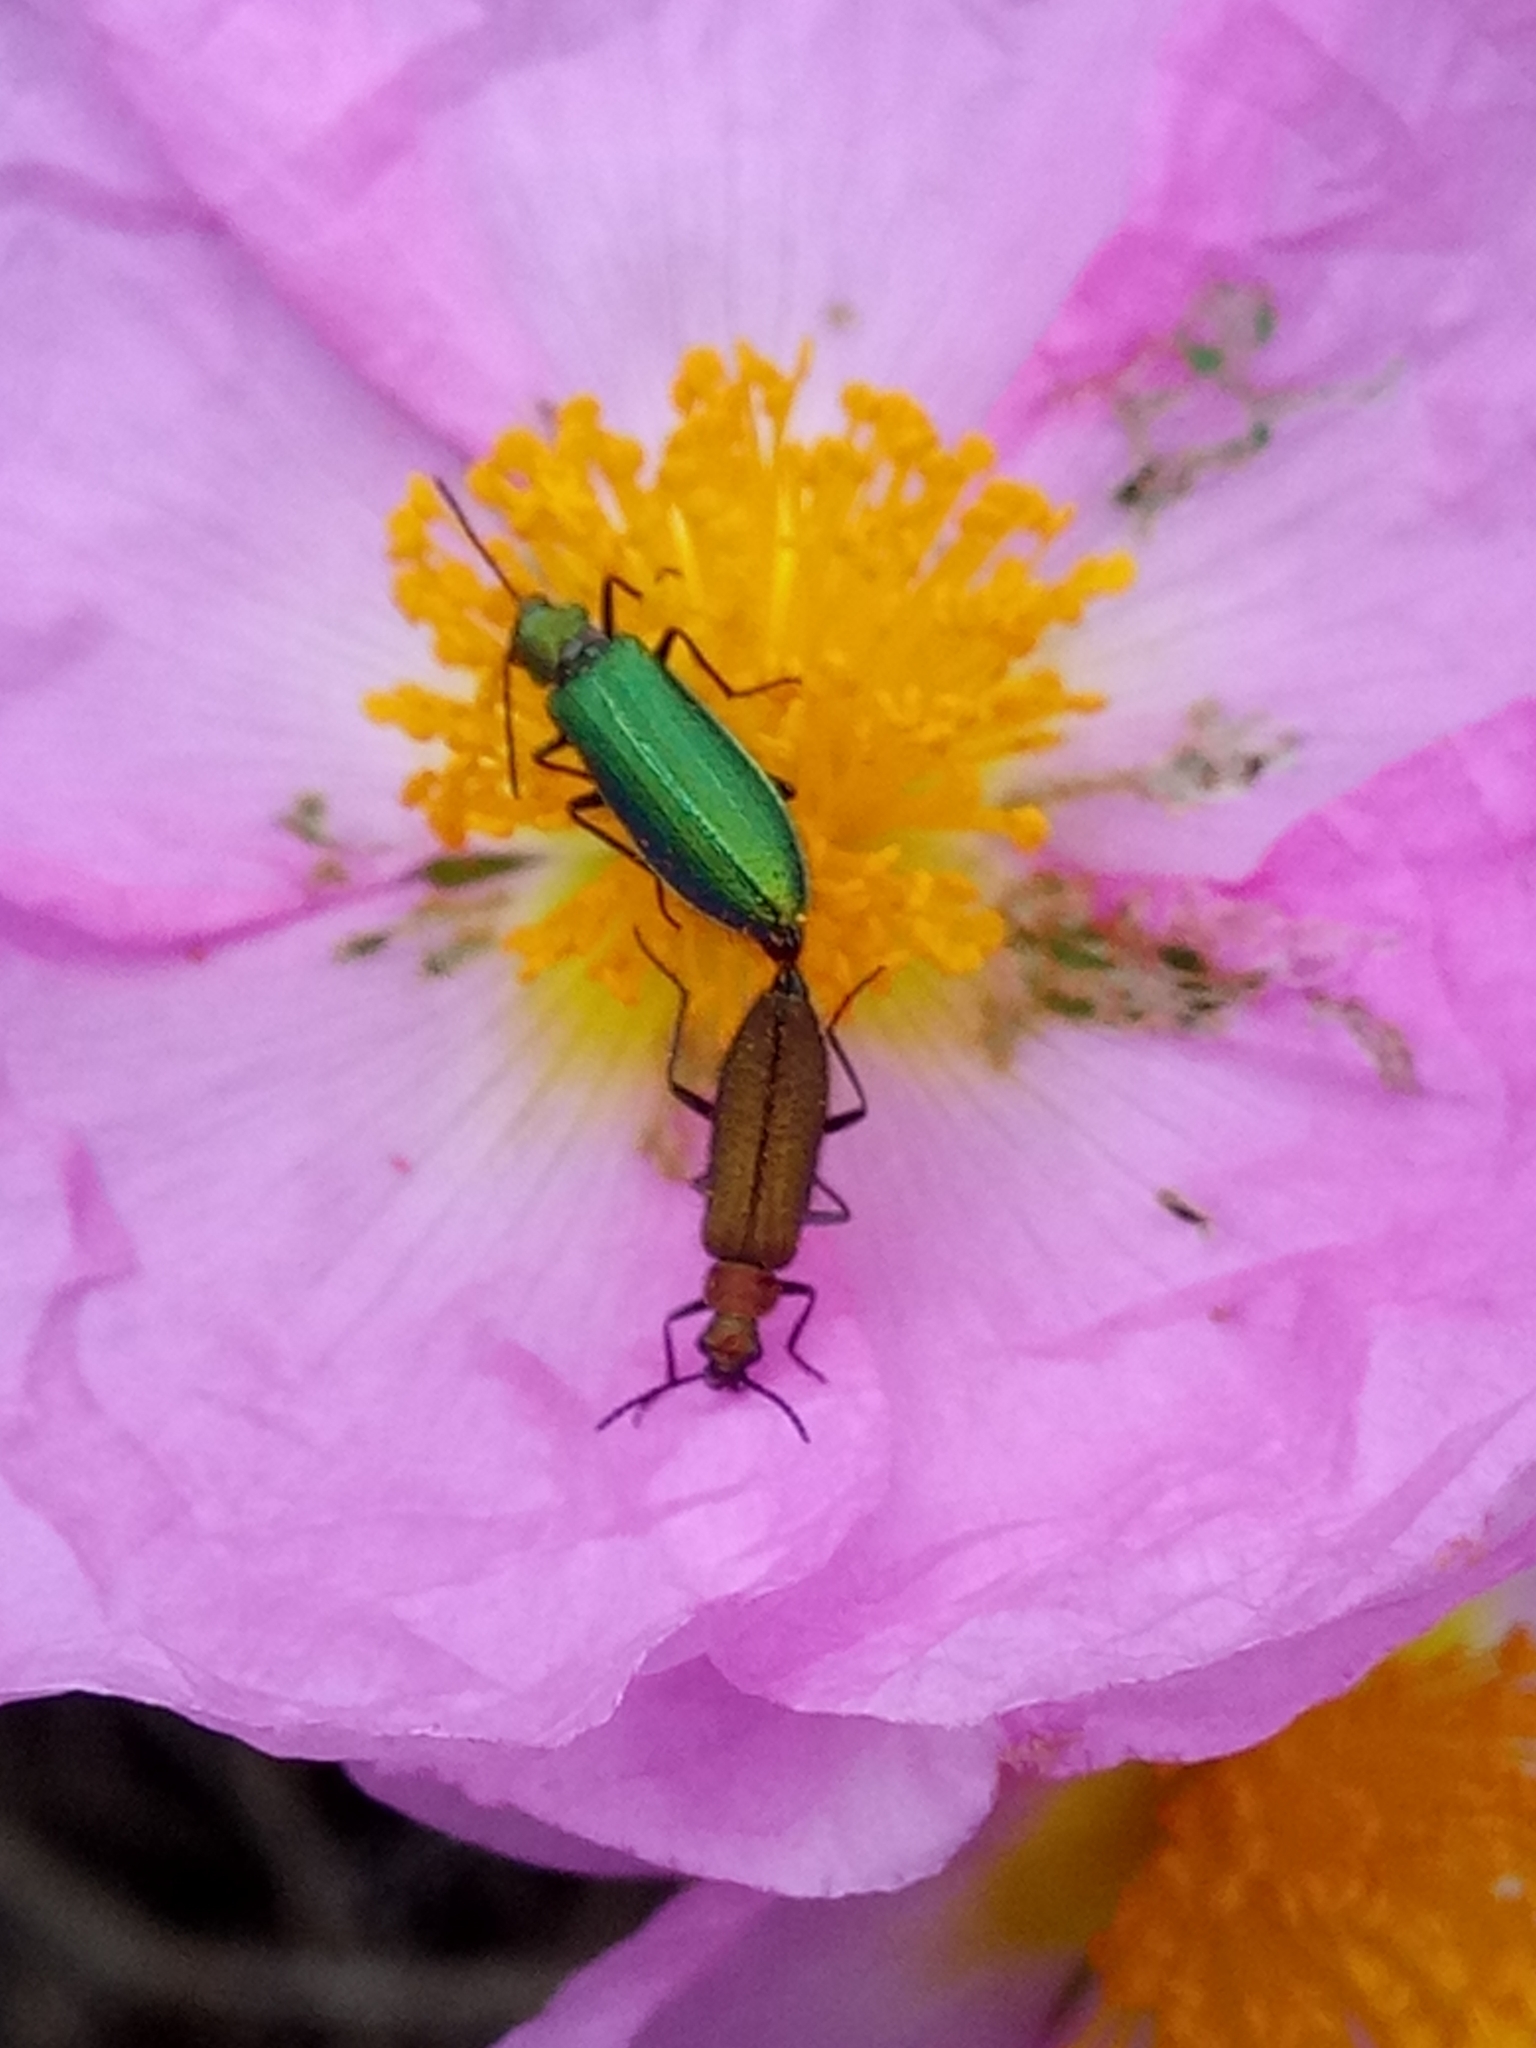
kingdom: Animalia
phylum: Arthropoda
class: Insecta
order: Coleoptera
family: Stenotrachelidae
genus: Stenotrachelus
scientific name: Stenotrachelus aeneus
